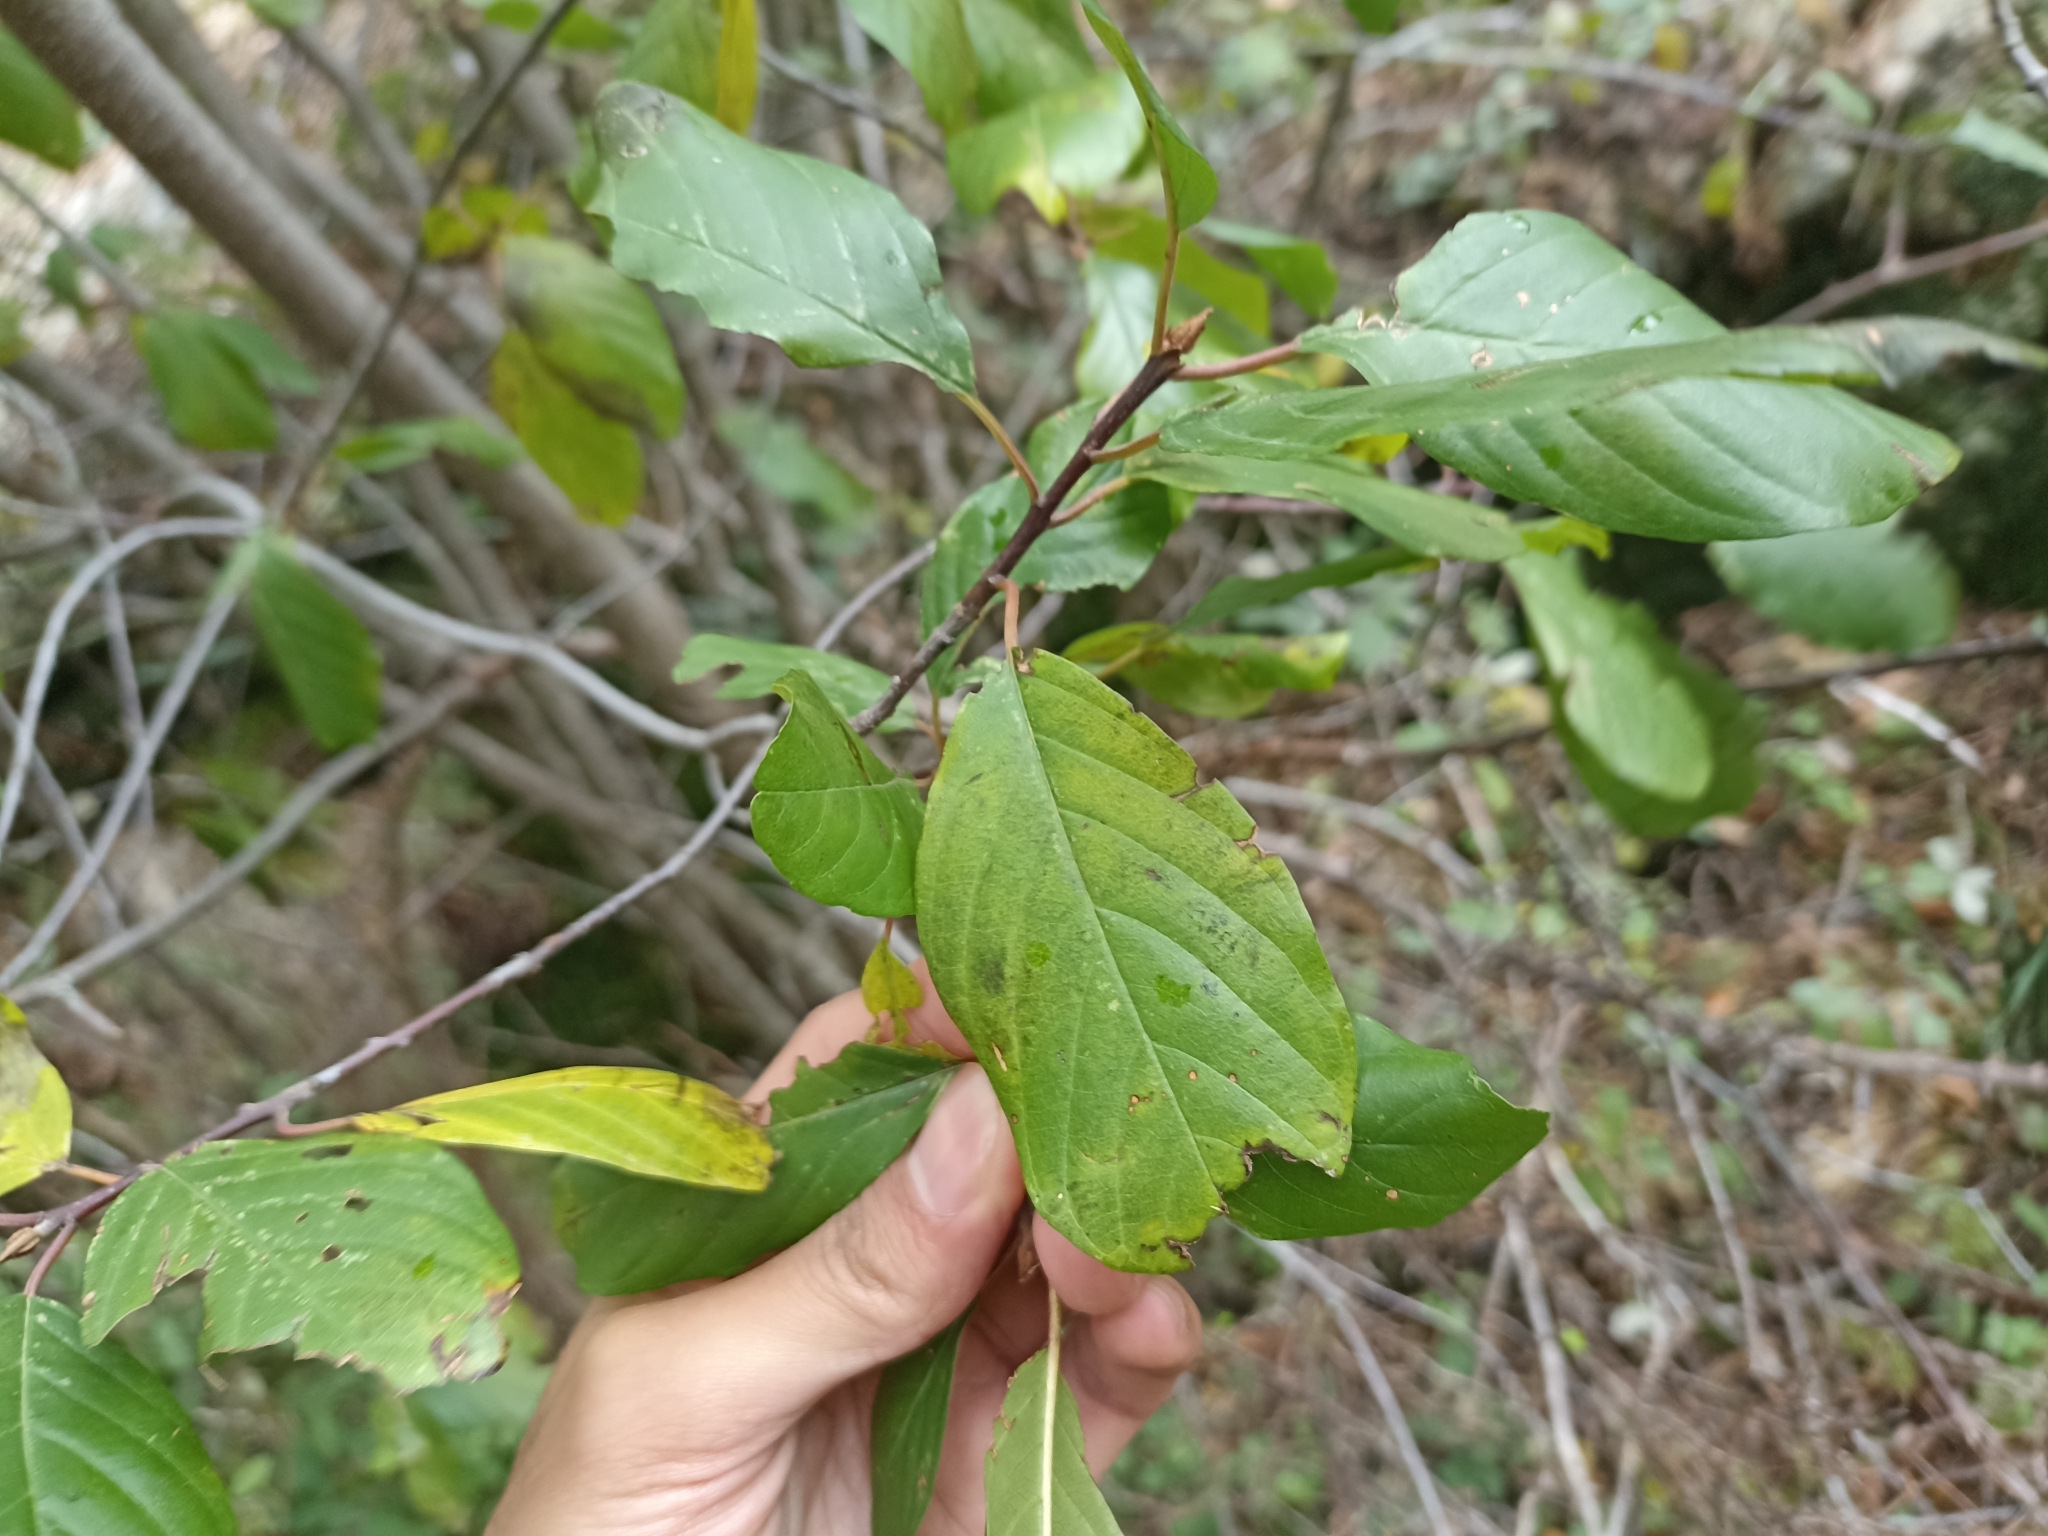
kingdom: Plantae
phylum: Tracheophyta
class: Magnoliopsida
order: Rosales
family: Rhamnaceae
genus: Frangula
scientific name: Frangula alnus
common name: Alder buckthorn
